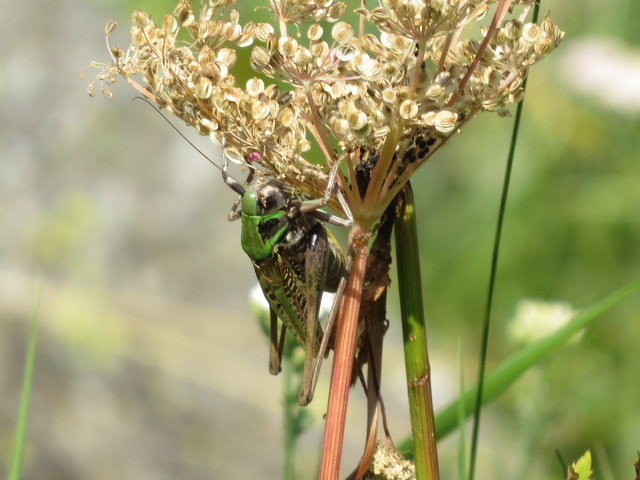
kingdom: Animalia
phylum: Arthropoda
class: Insecta
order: Orthoptera
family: Tettigoniidae
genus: Decticus
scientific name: Decticus verrucivorus
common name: Wart-biter
